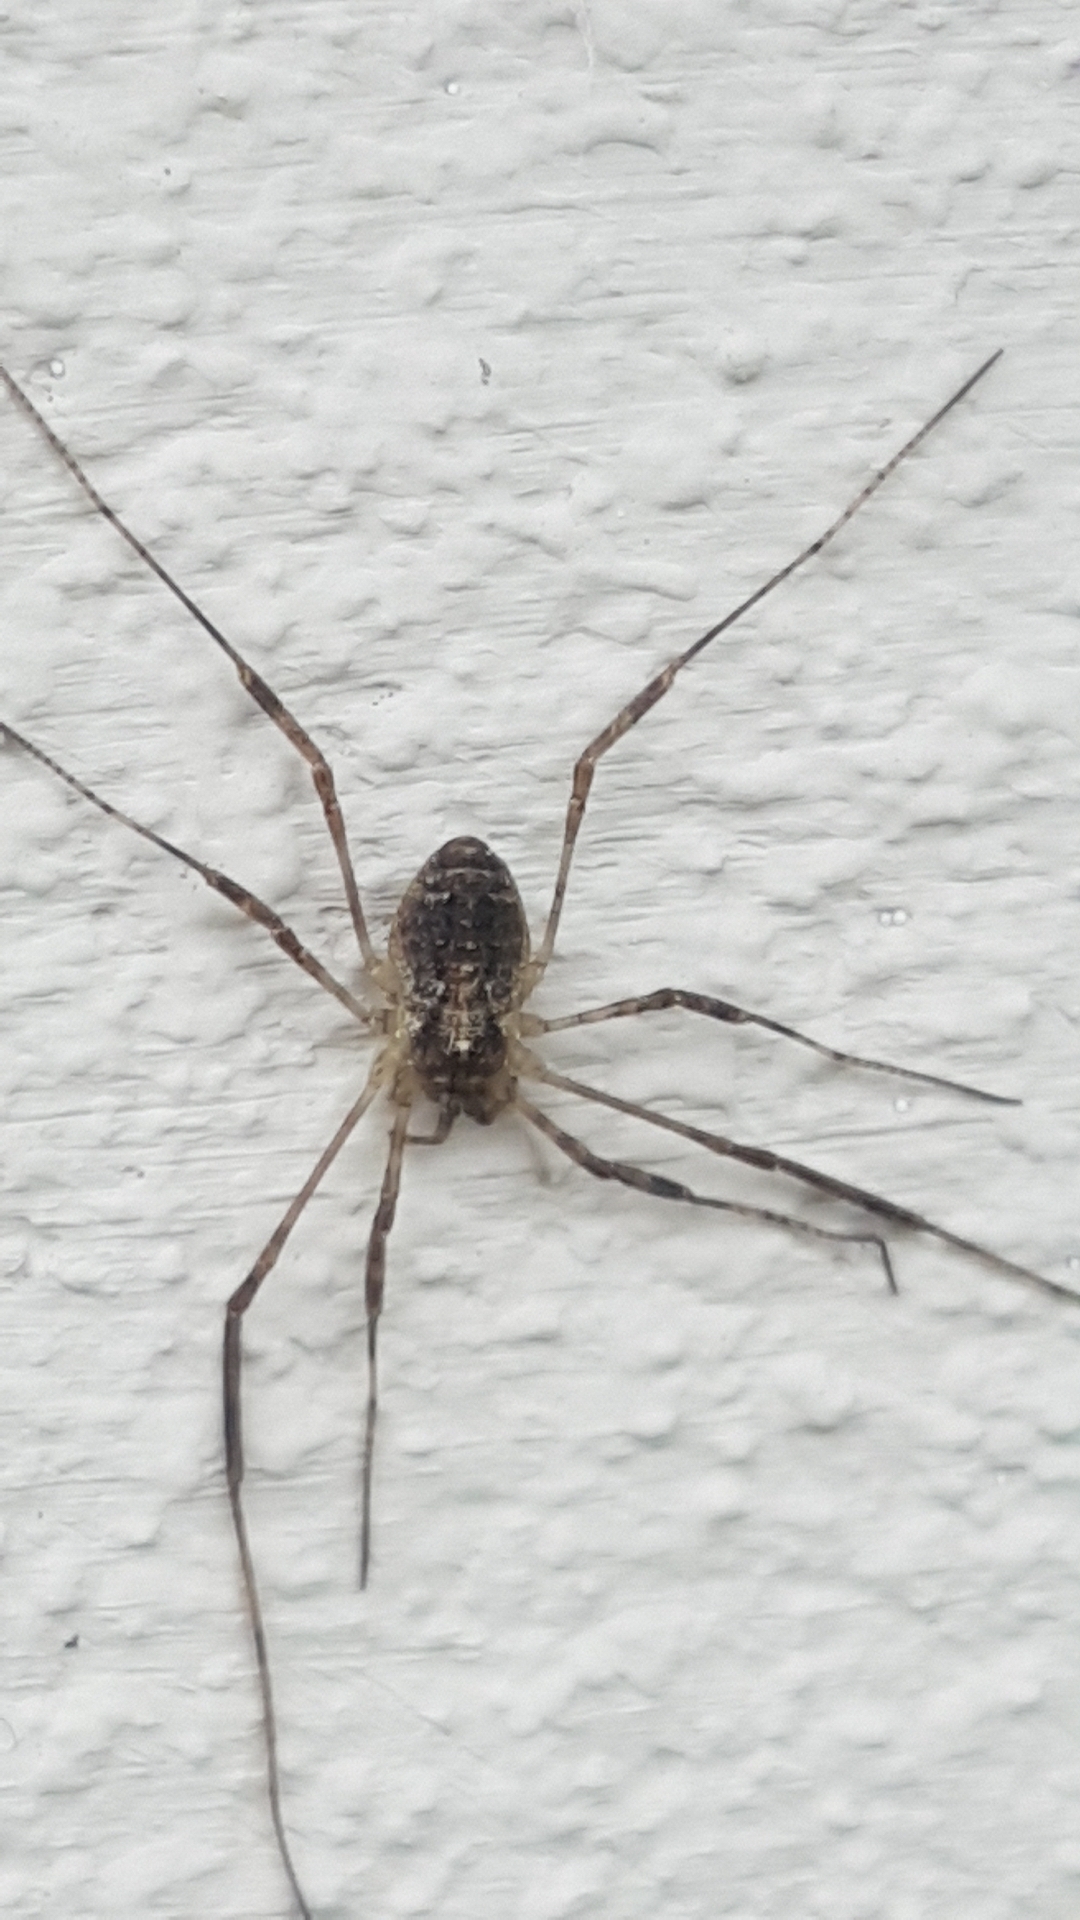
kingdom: Animalia
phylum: Arthropoda
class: Arachnida
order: Opiliones
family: Phalangiidae
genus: Paroligolophus
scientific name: Paroligolophus agrestis
